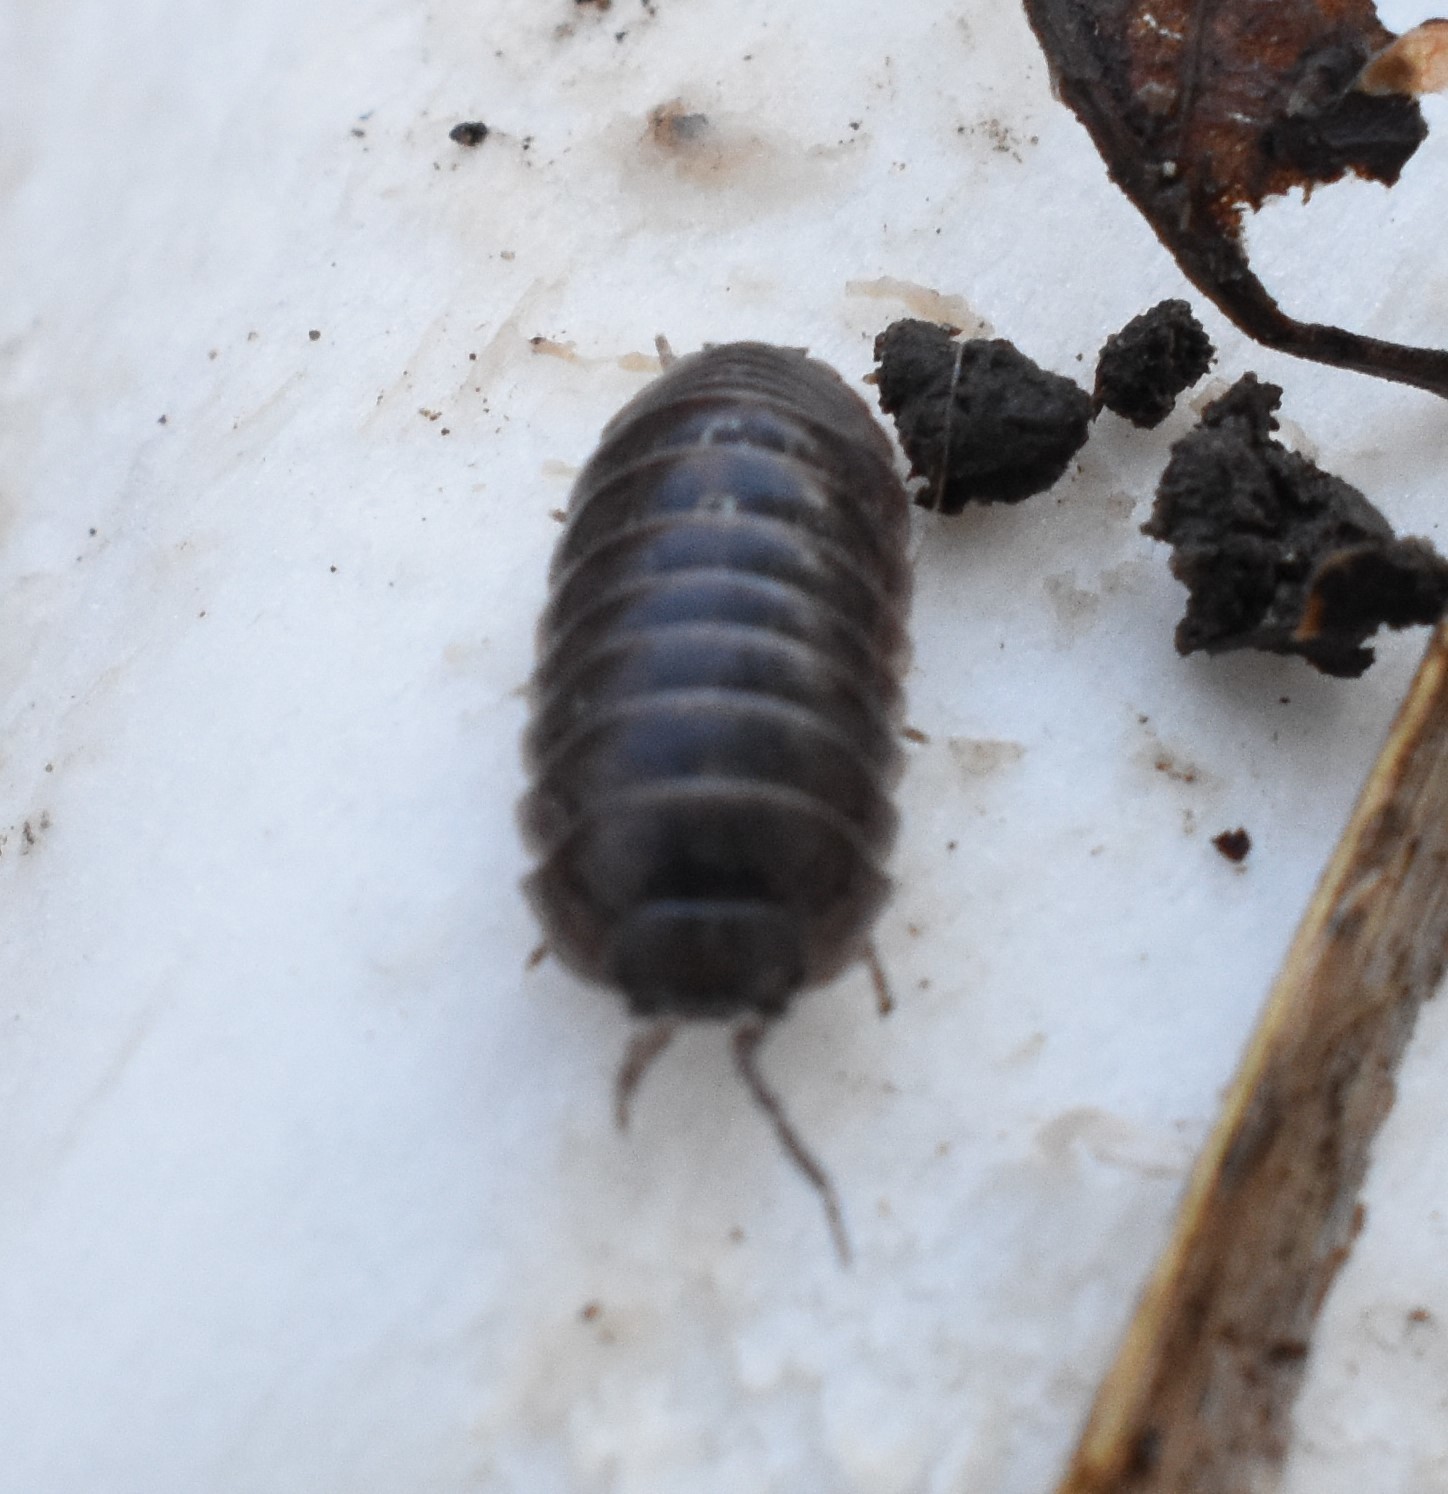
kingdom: Animalia
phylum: Arthropoda
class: Malacostraca
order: Isopoda
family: Armadillidiidae
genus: Armadillidium
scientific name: Armadillidium vulgare
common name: Common pill woodlouse
